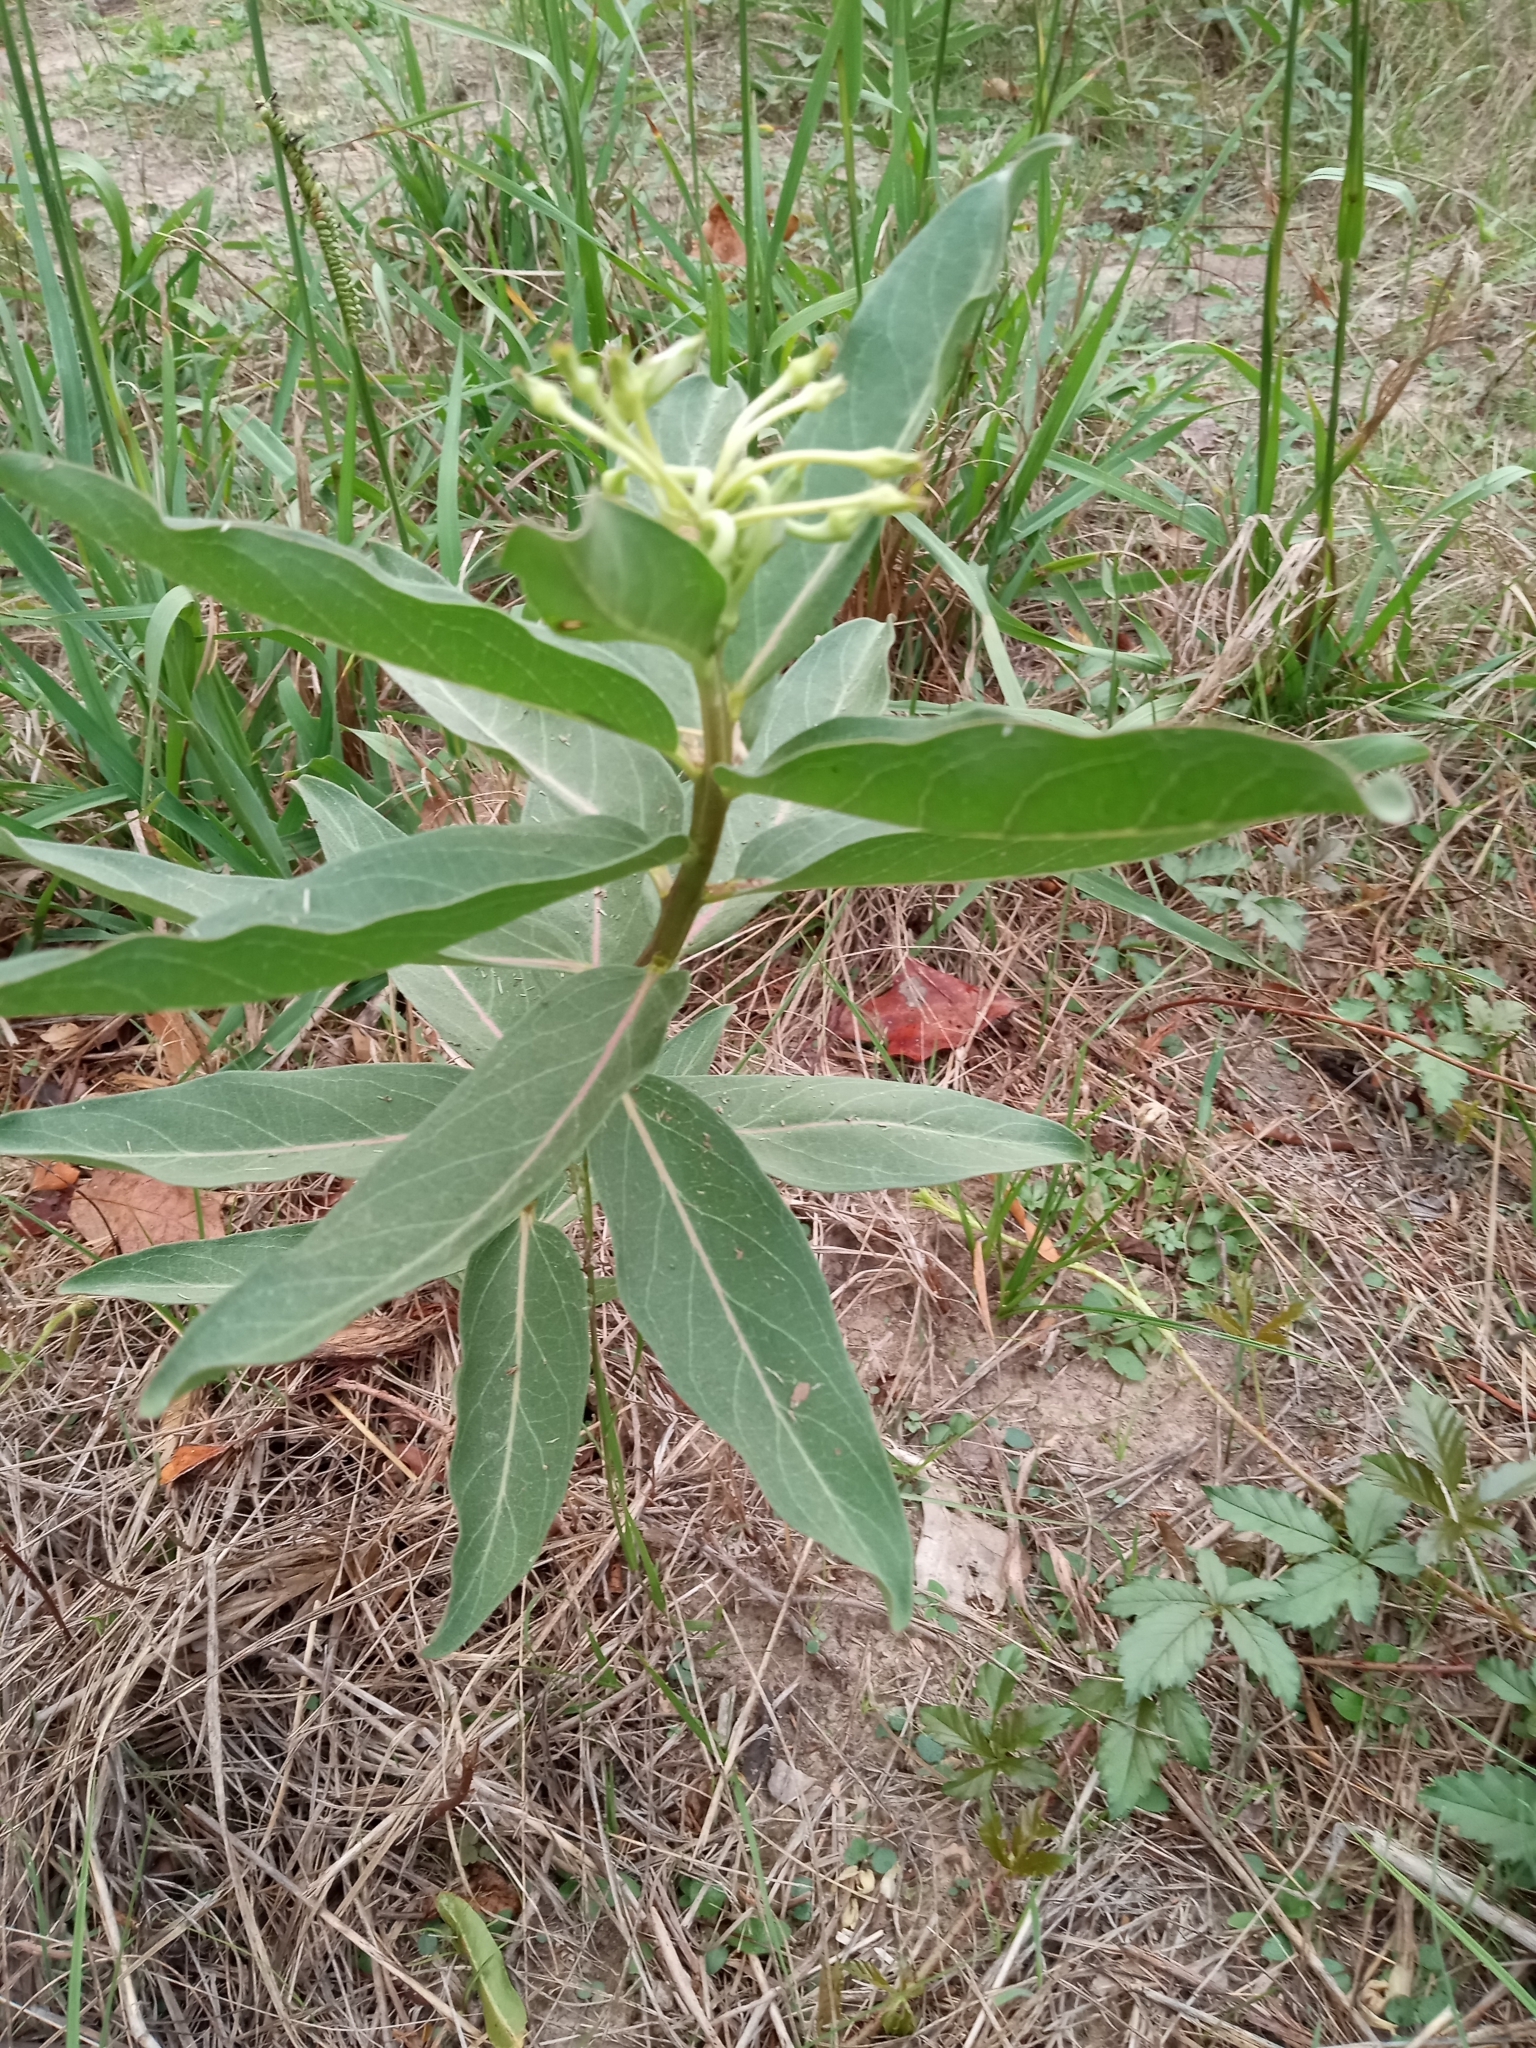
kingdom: Plantae
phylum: Tracheophyta
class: Magnoliopsida
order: Gentianales
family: Apocynaceae
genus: Asclepias
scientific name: Asclepias viridis
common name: Antelope-horns
